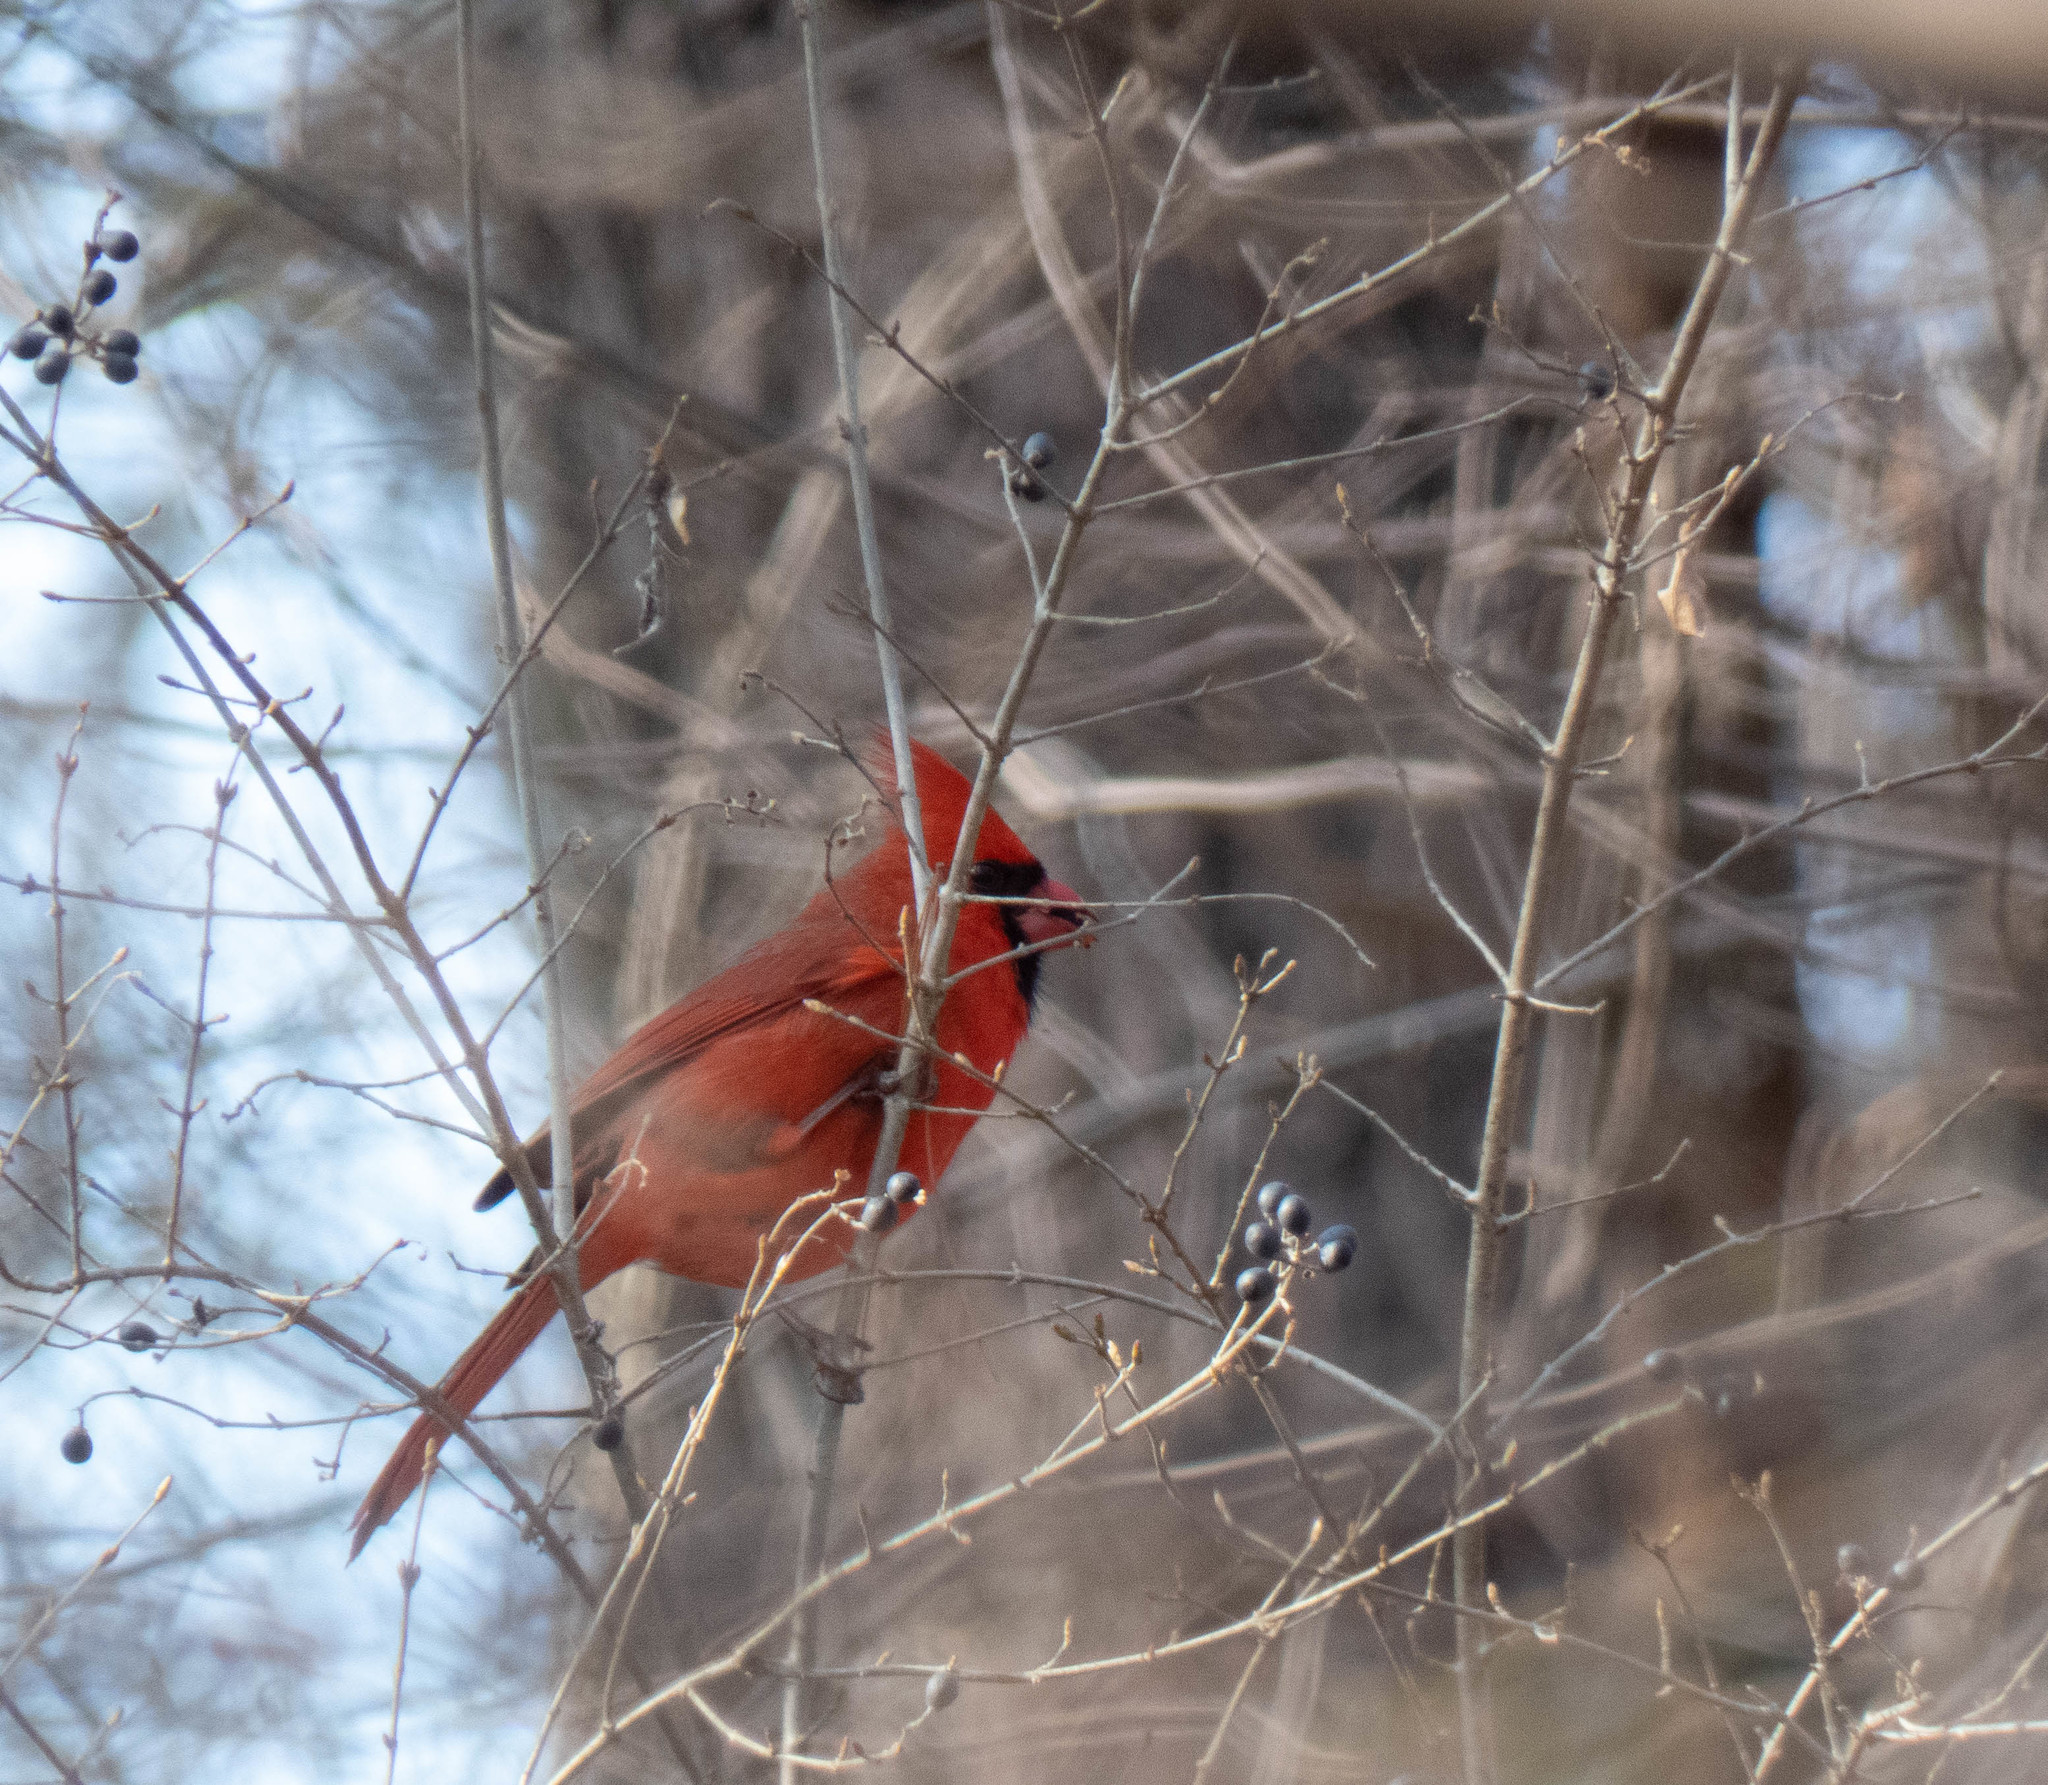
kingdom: Animalia
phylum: Chordata
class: Aves
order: Passeriformes
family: Cardinalidae
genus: Cardinalis
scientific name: Cardinalis cardinalis
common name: Northern cardinal
